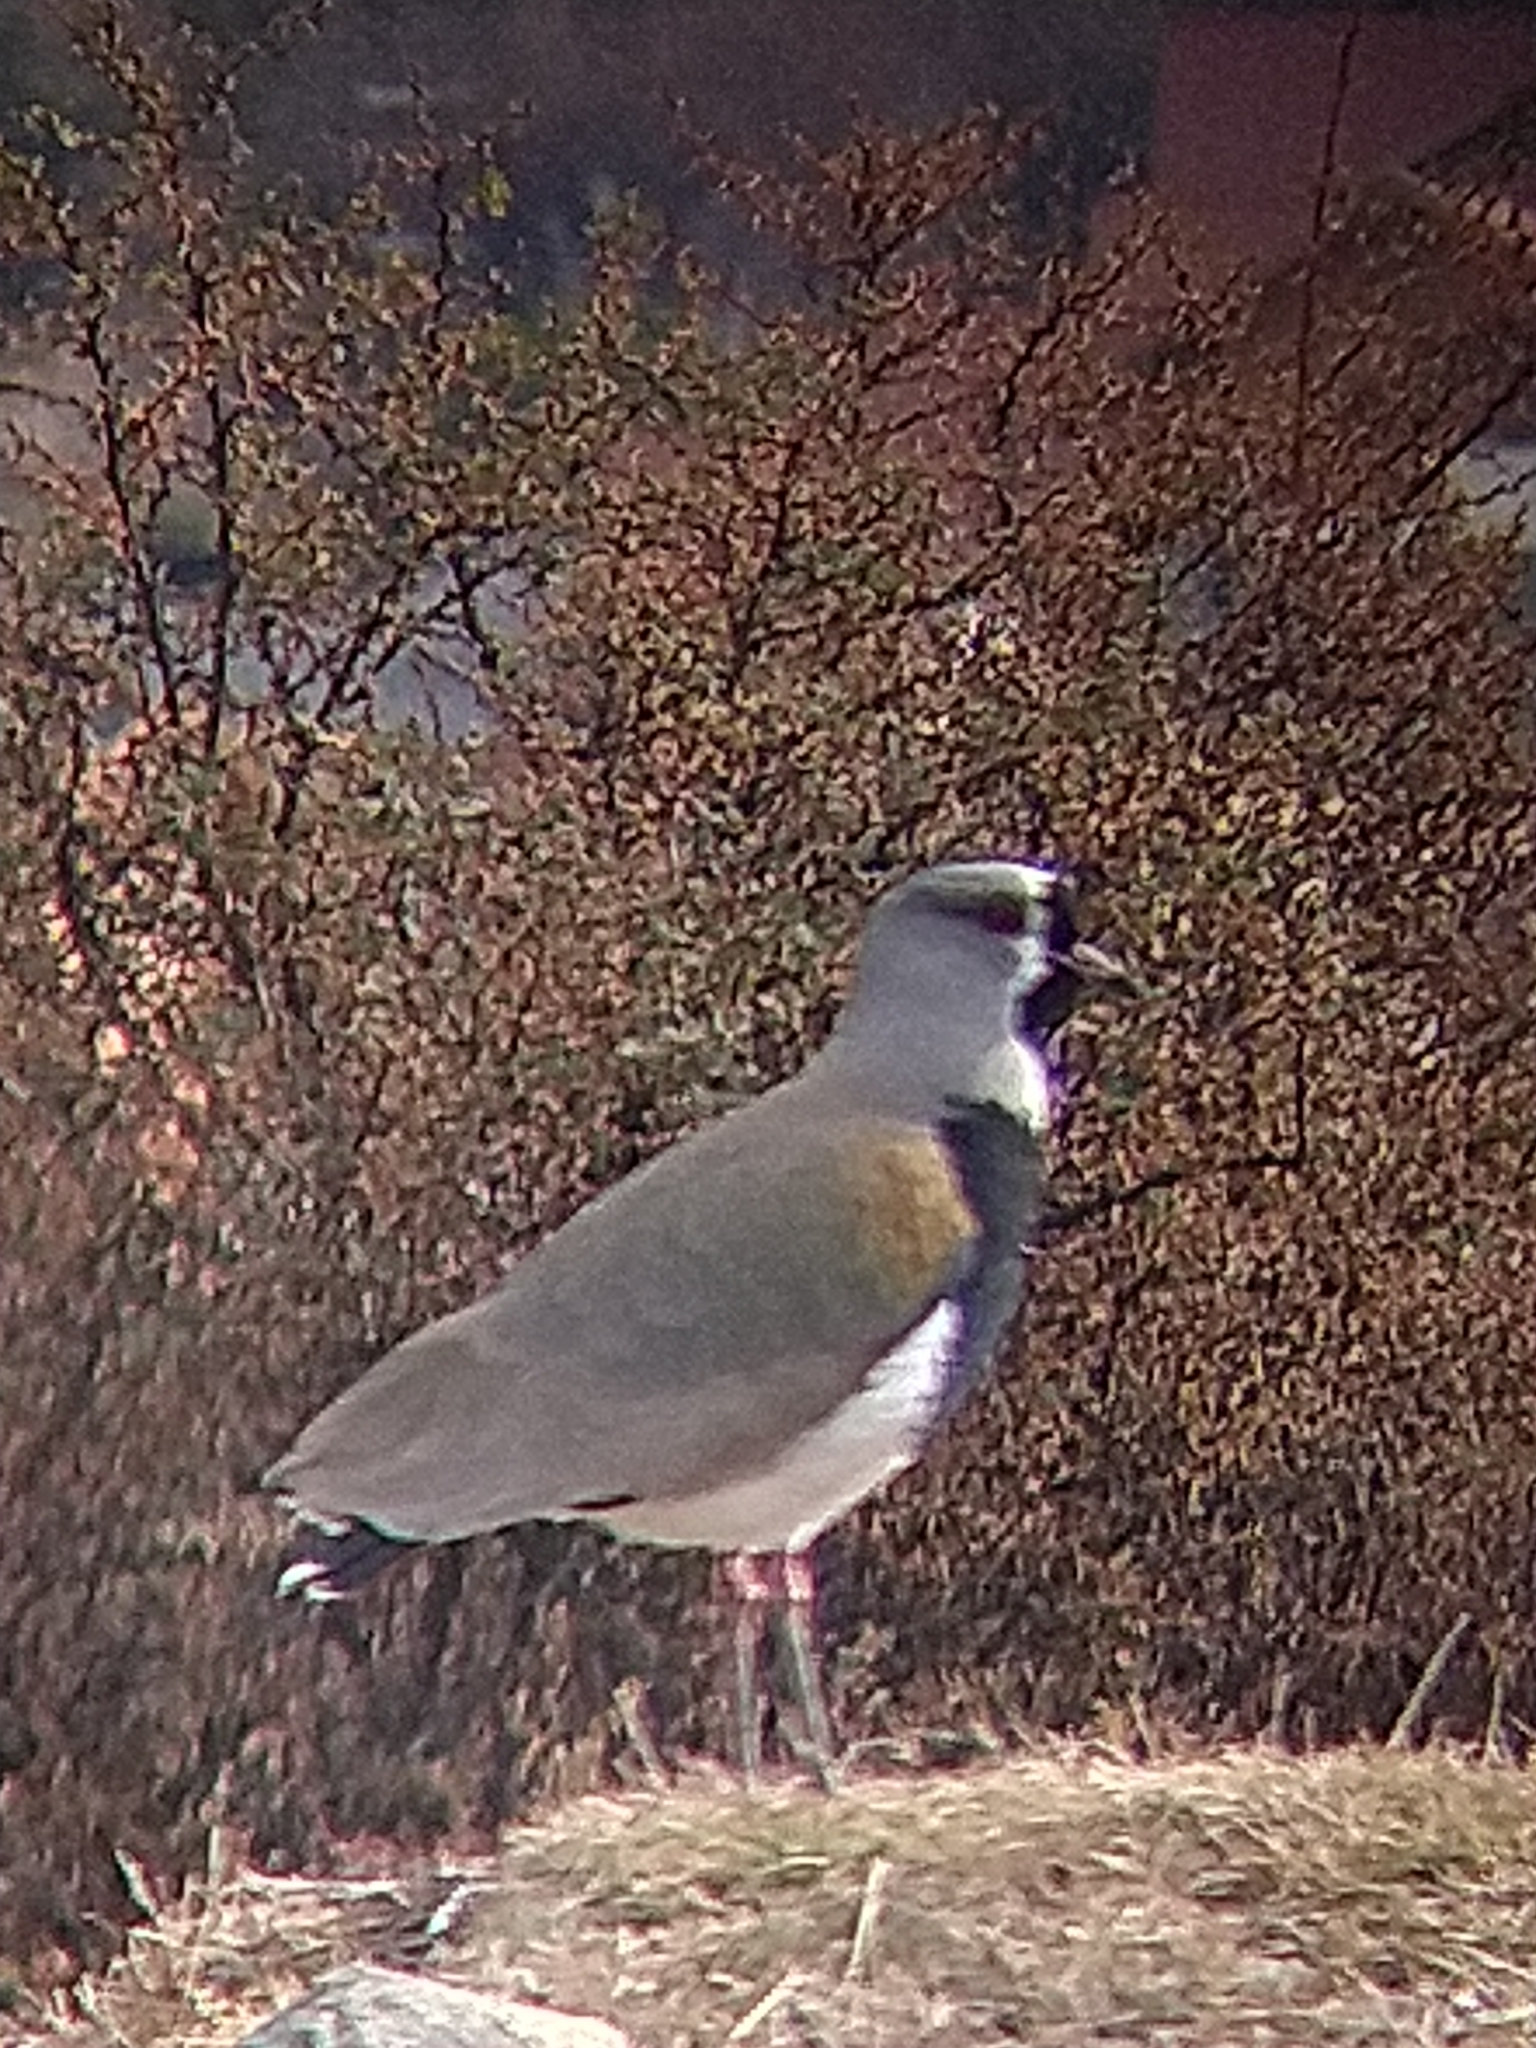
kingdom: Animalia
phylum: Chordata
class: Aves
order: Charadriiformes
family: Charadriidae
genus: Vanellus
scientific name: Vanellus chilensis
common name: Southern lapwing
